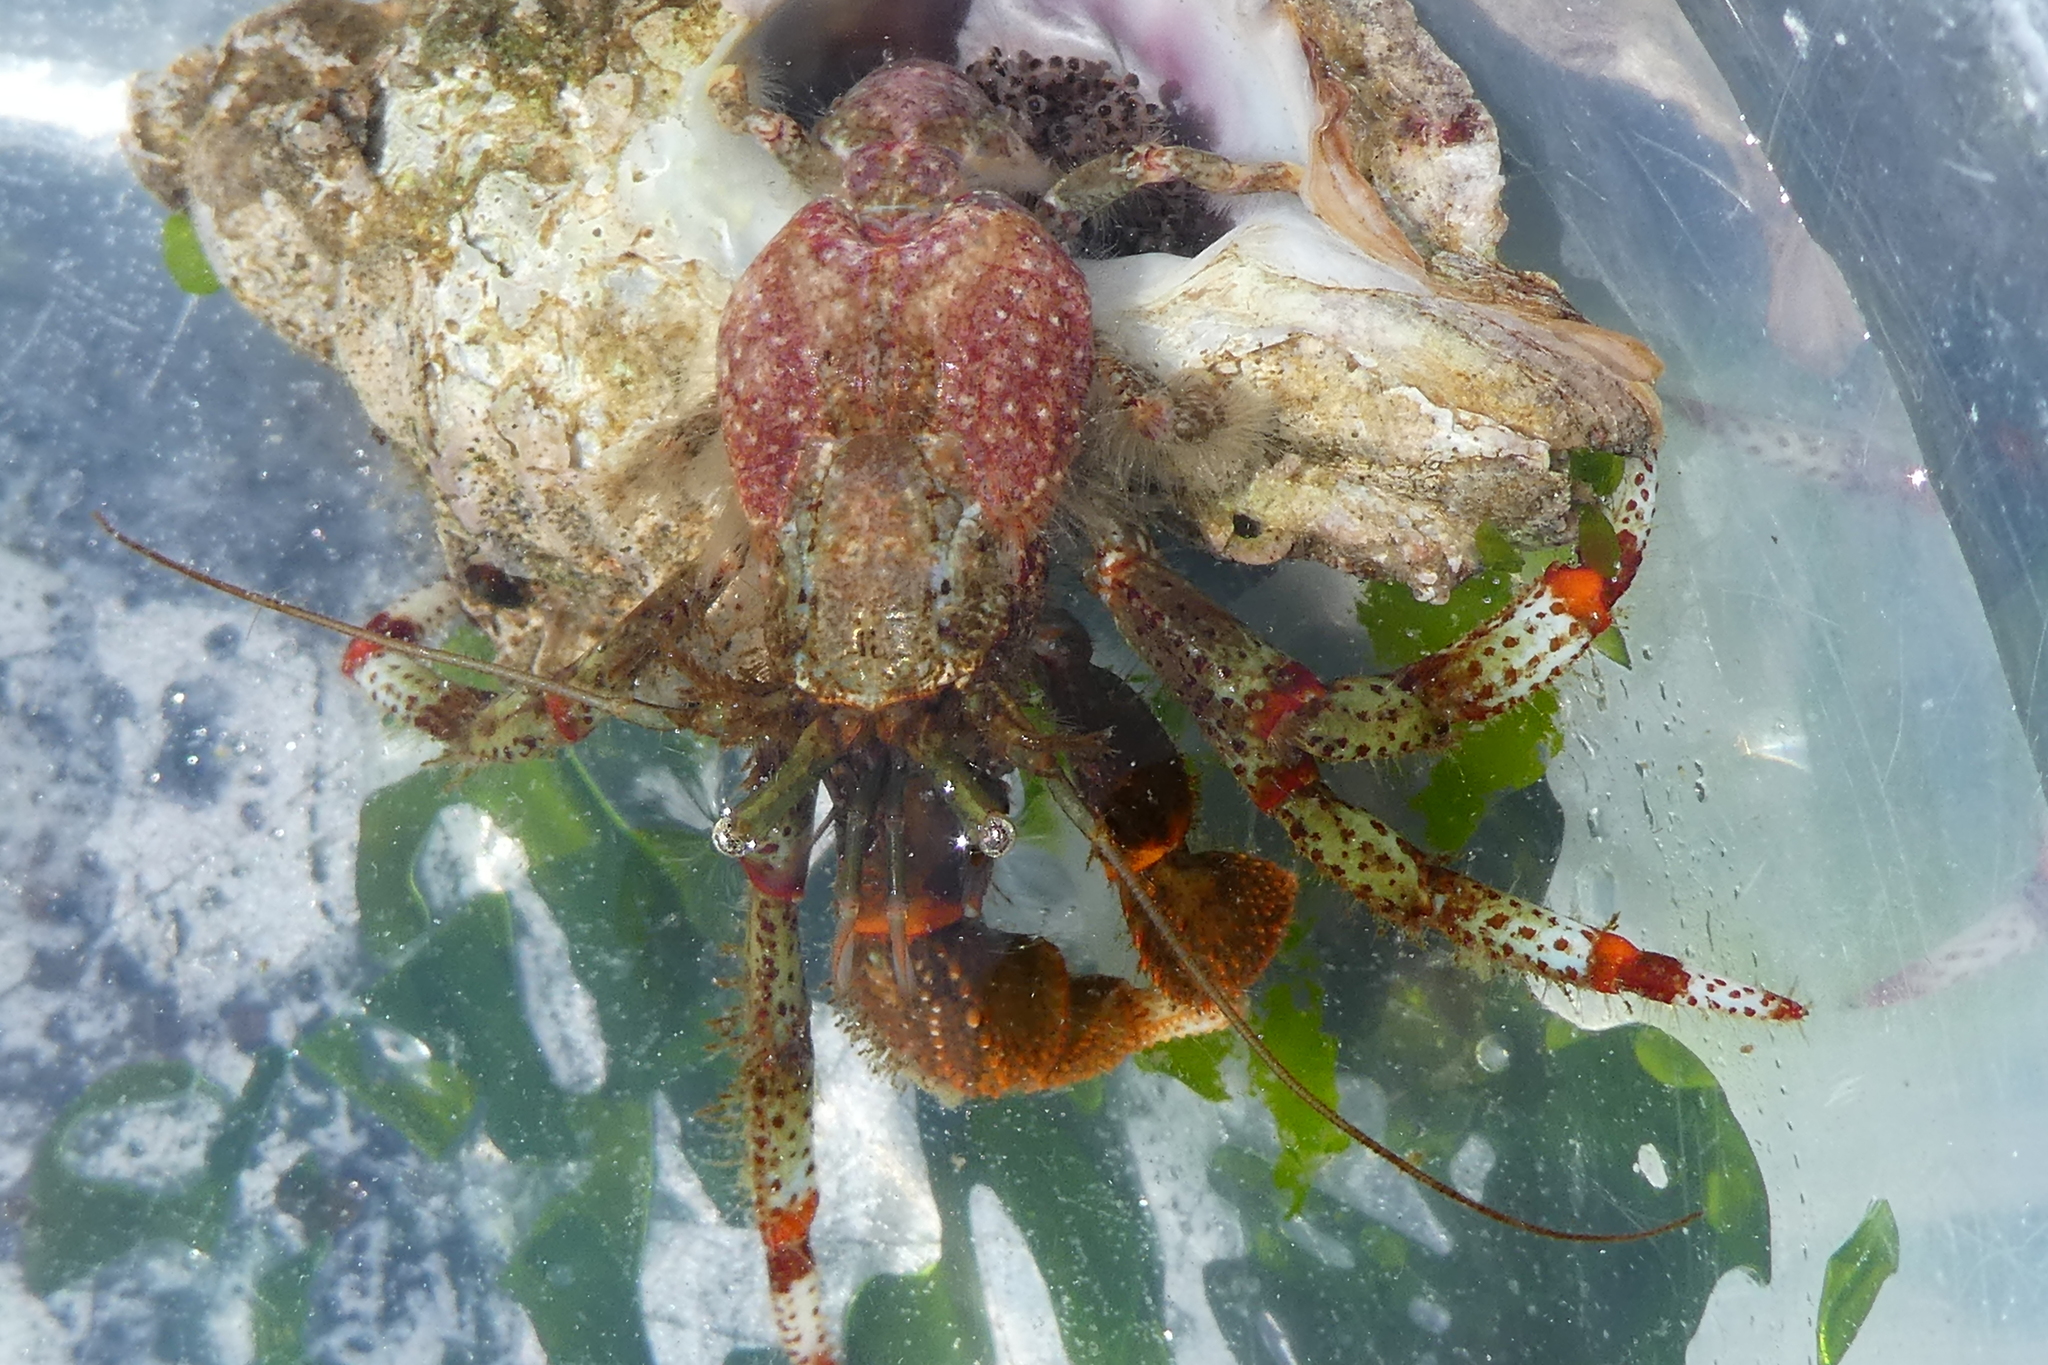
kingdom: Animalia
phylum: Arthropoda
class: Malacostraca
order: Decapoda
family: Paguridae
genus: Pagurus
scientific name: Pagurus beringanus
